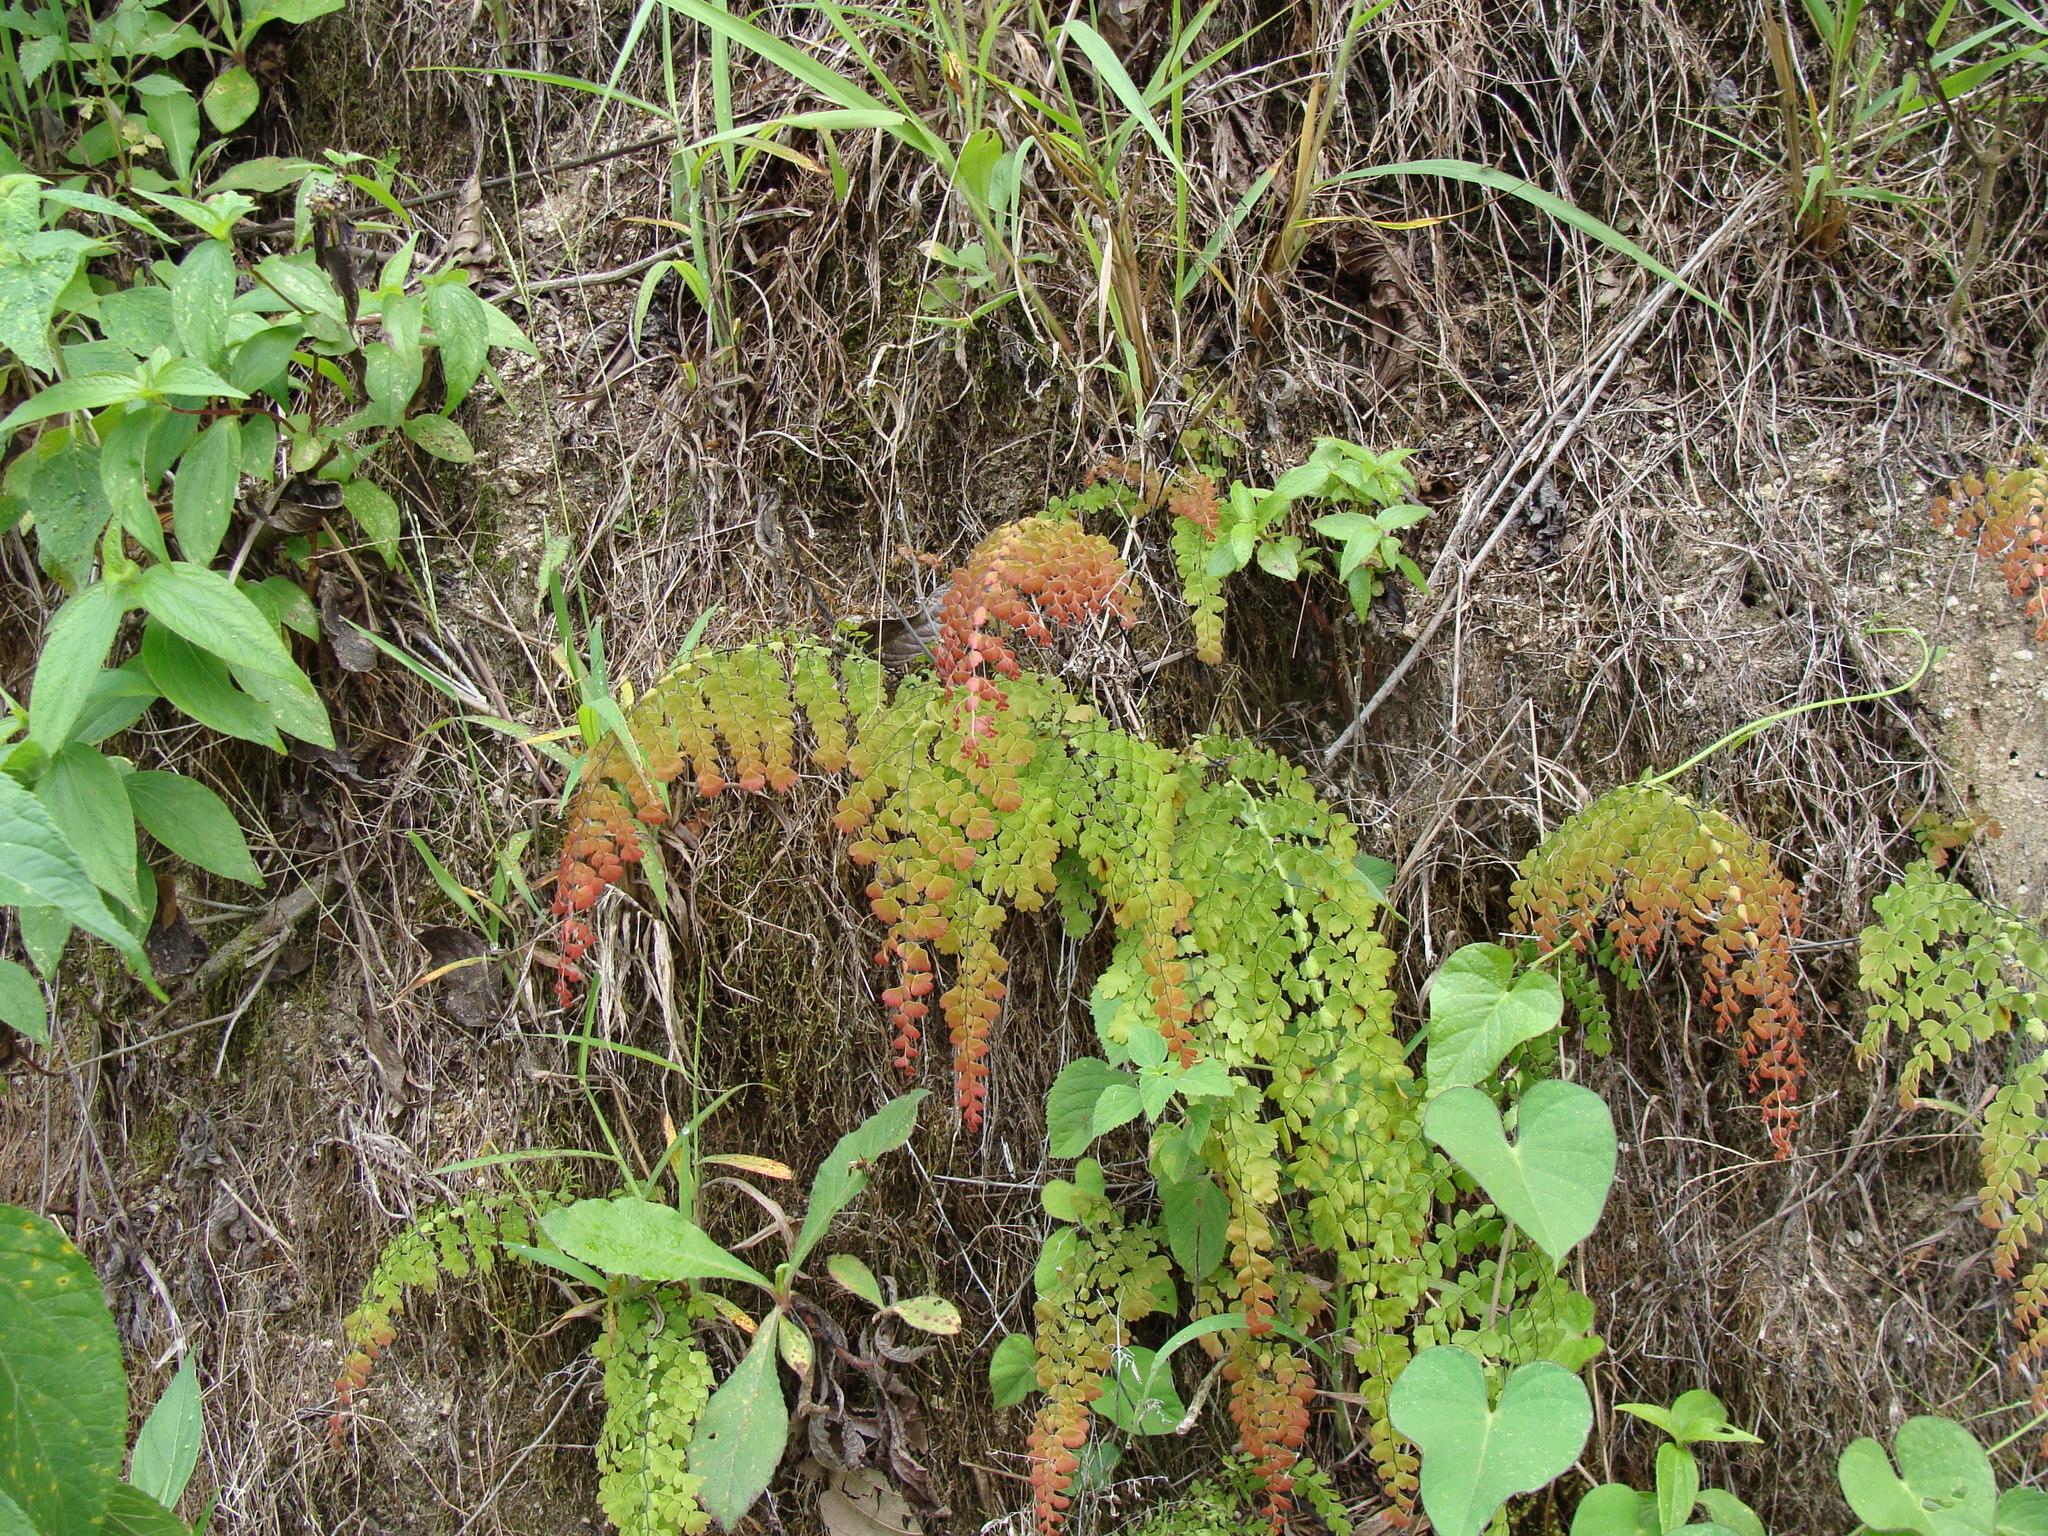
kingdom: Plantae
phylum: Tracheophyta
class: Polypodiopsida
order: Polypodiales
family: Pteridaceae
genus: Adiantum
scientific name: Adiantum concinnum
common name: Brittle maidenhair fern
